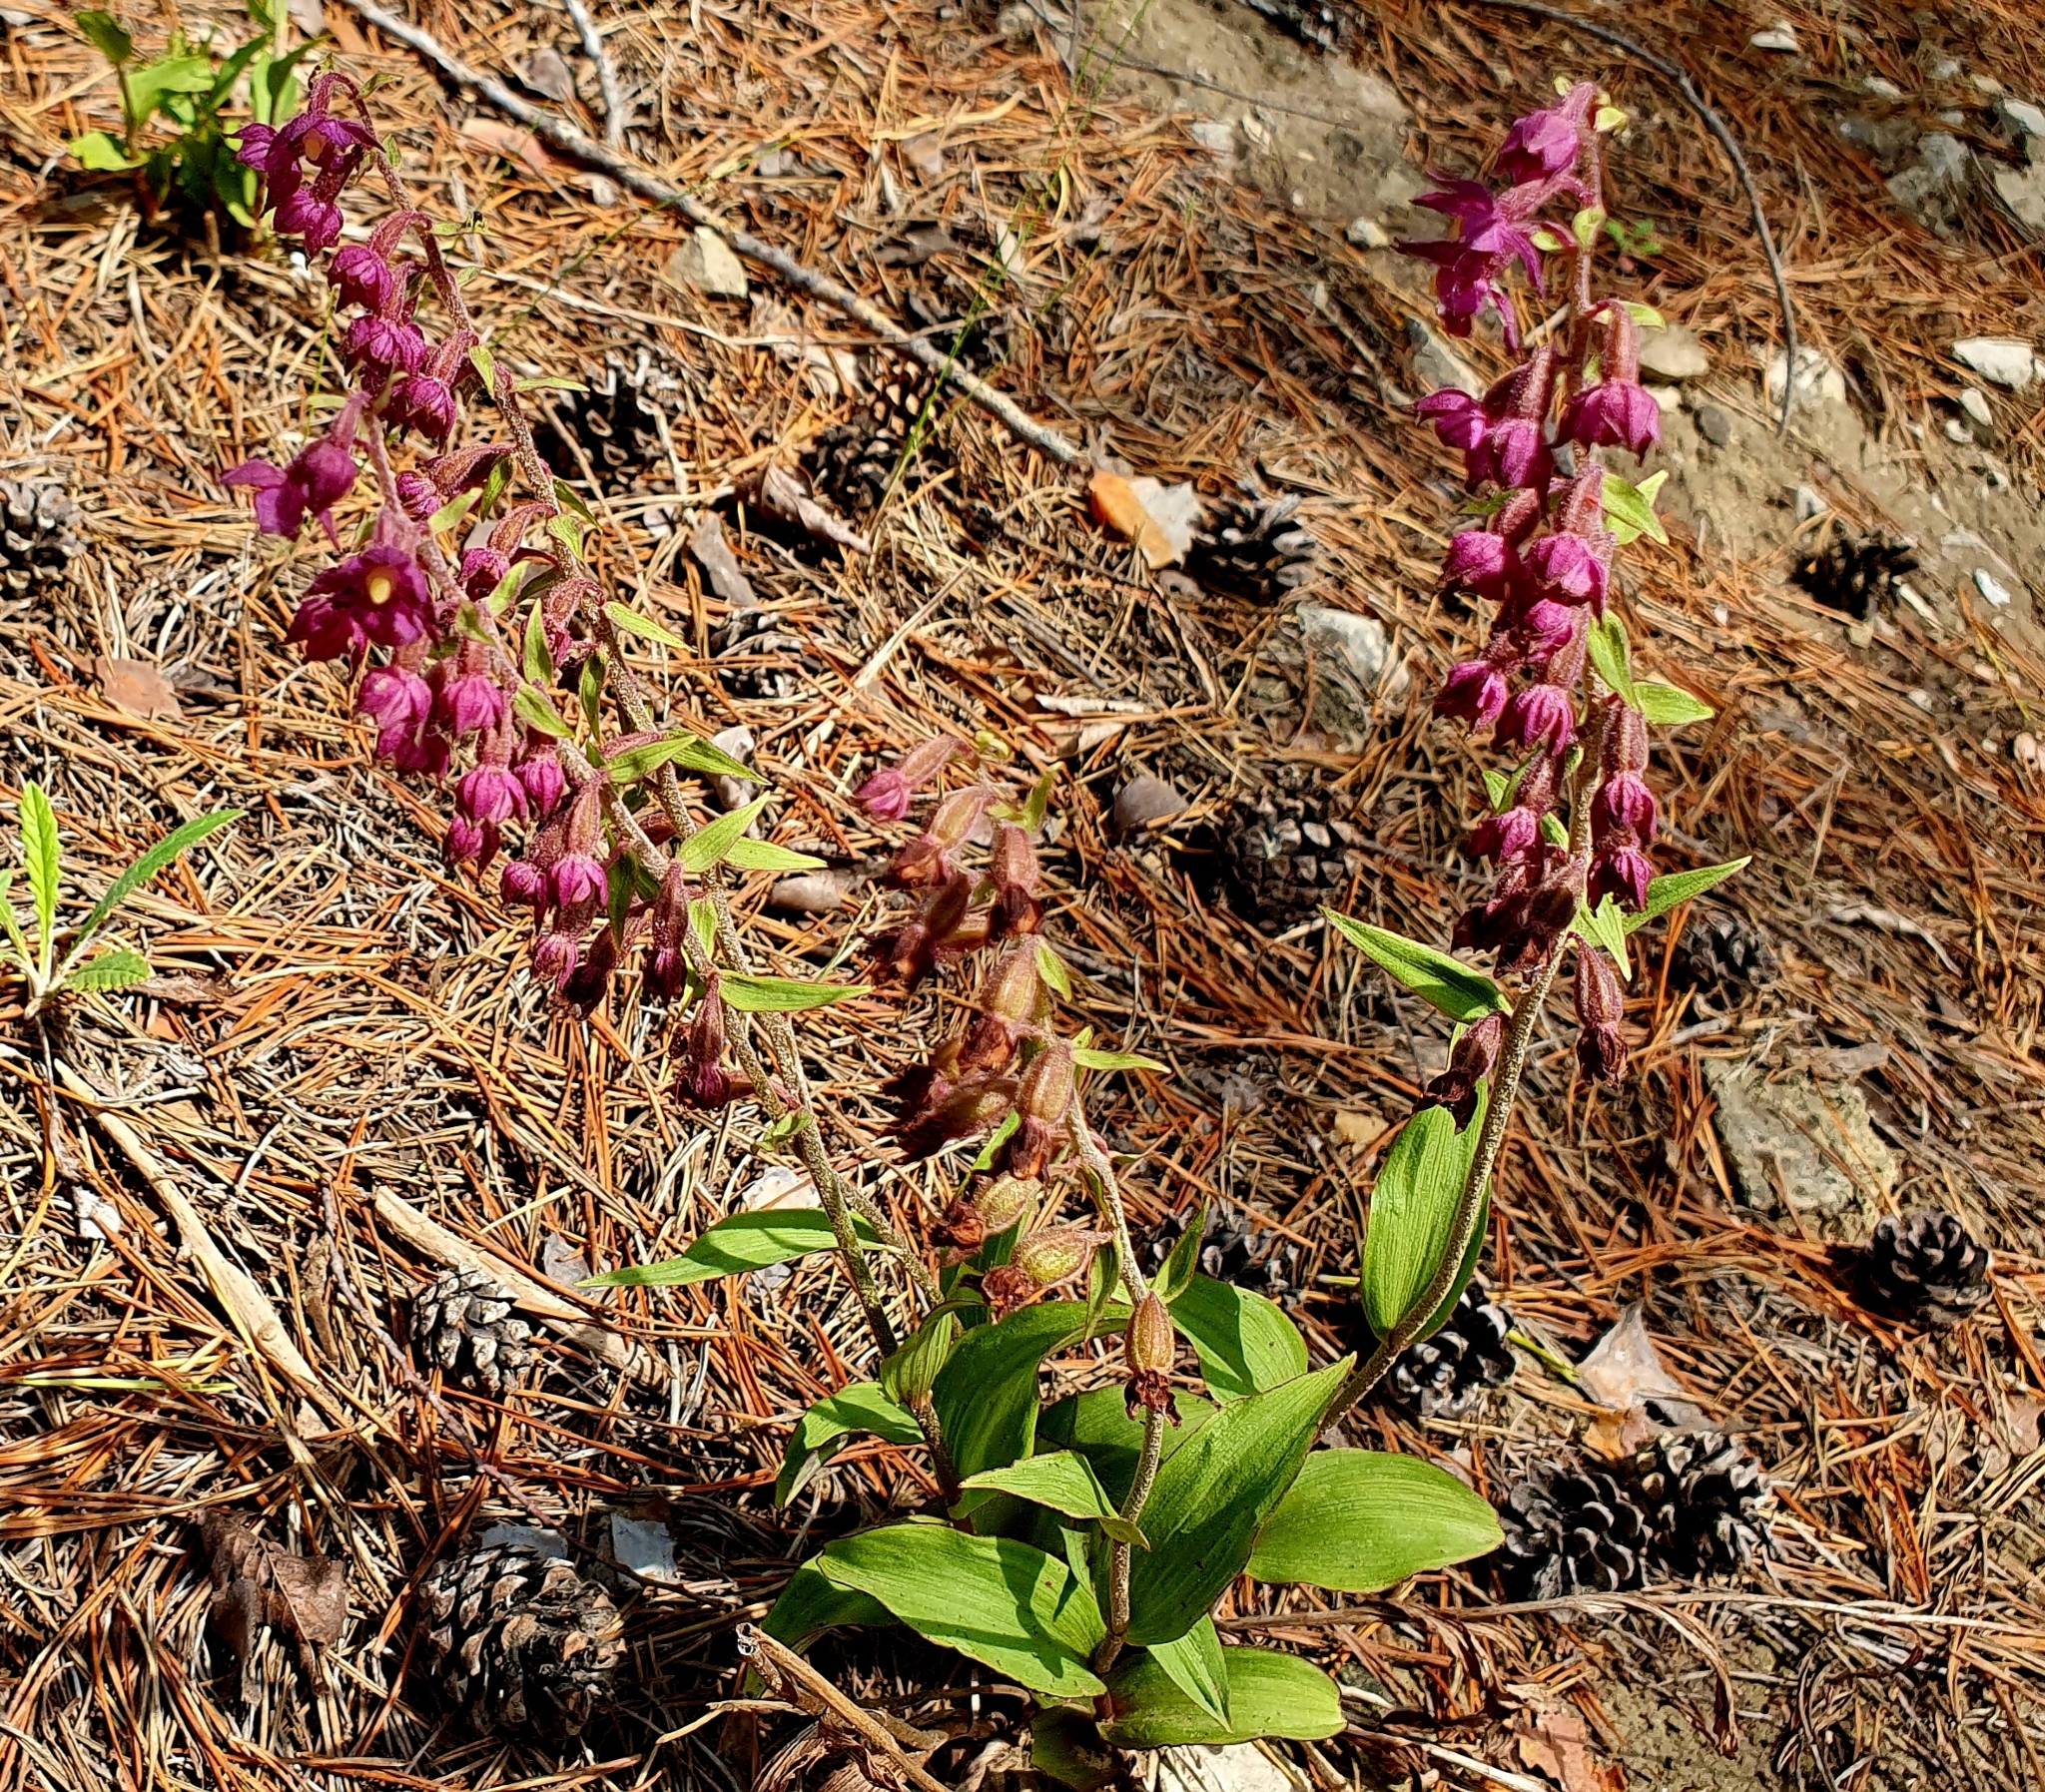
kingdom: Plantae
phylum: Tracheophyta
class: Liliopsida
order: Asparagales
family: Orchidaceae
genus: Epipactis
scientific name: Epipactis atrorubens
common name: Dark-red helleborine
